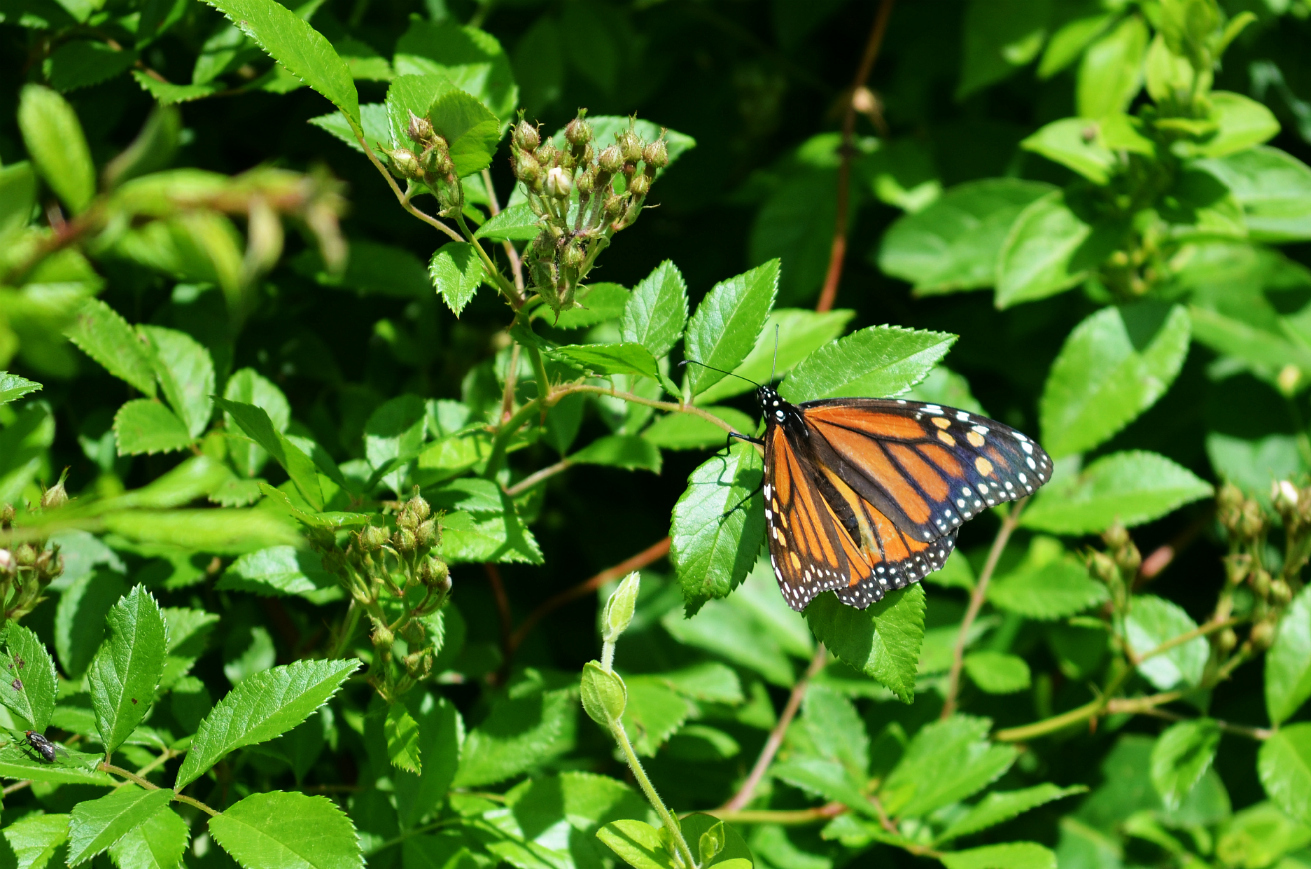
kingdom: Animalia
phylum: Arthropoda
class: Insecta
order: Lepidoptera
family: Nymphalidae
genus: Danaus
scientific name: Danaus plexippus
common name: Monarch
